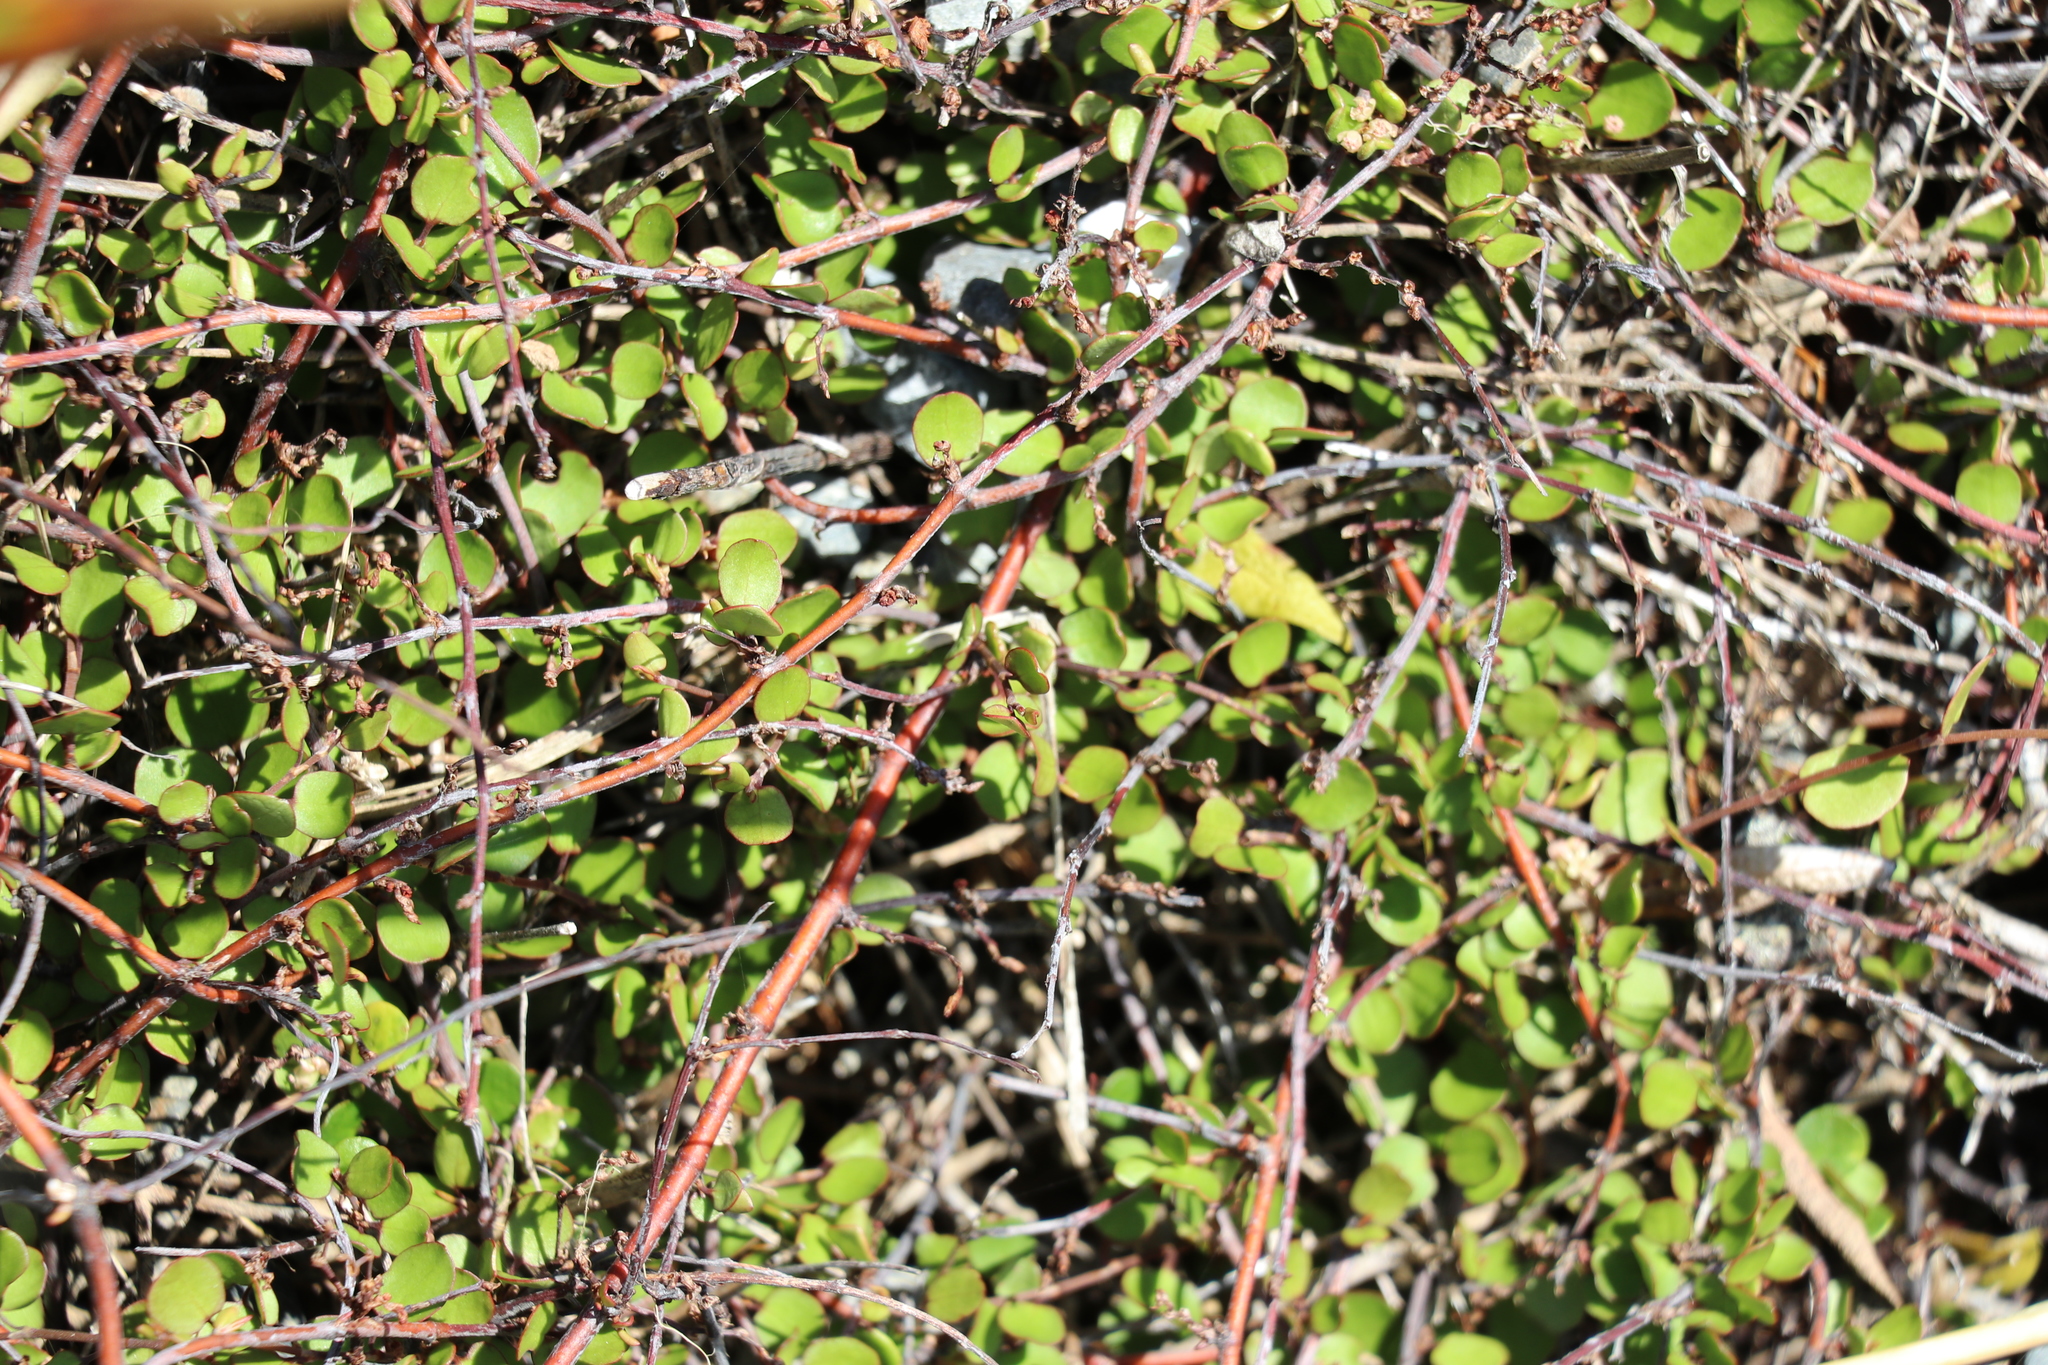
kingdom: Plantae
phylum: Tracheophyta
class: Magnoliopsida
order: Caryophyllales
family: Polygonaceae
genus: Muehlenbeckia
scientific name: Muehlenbeckia australis
